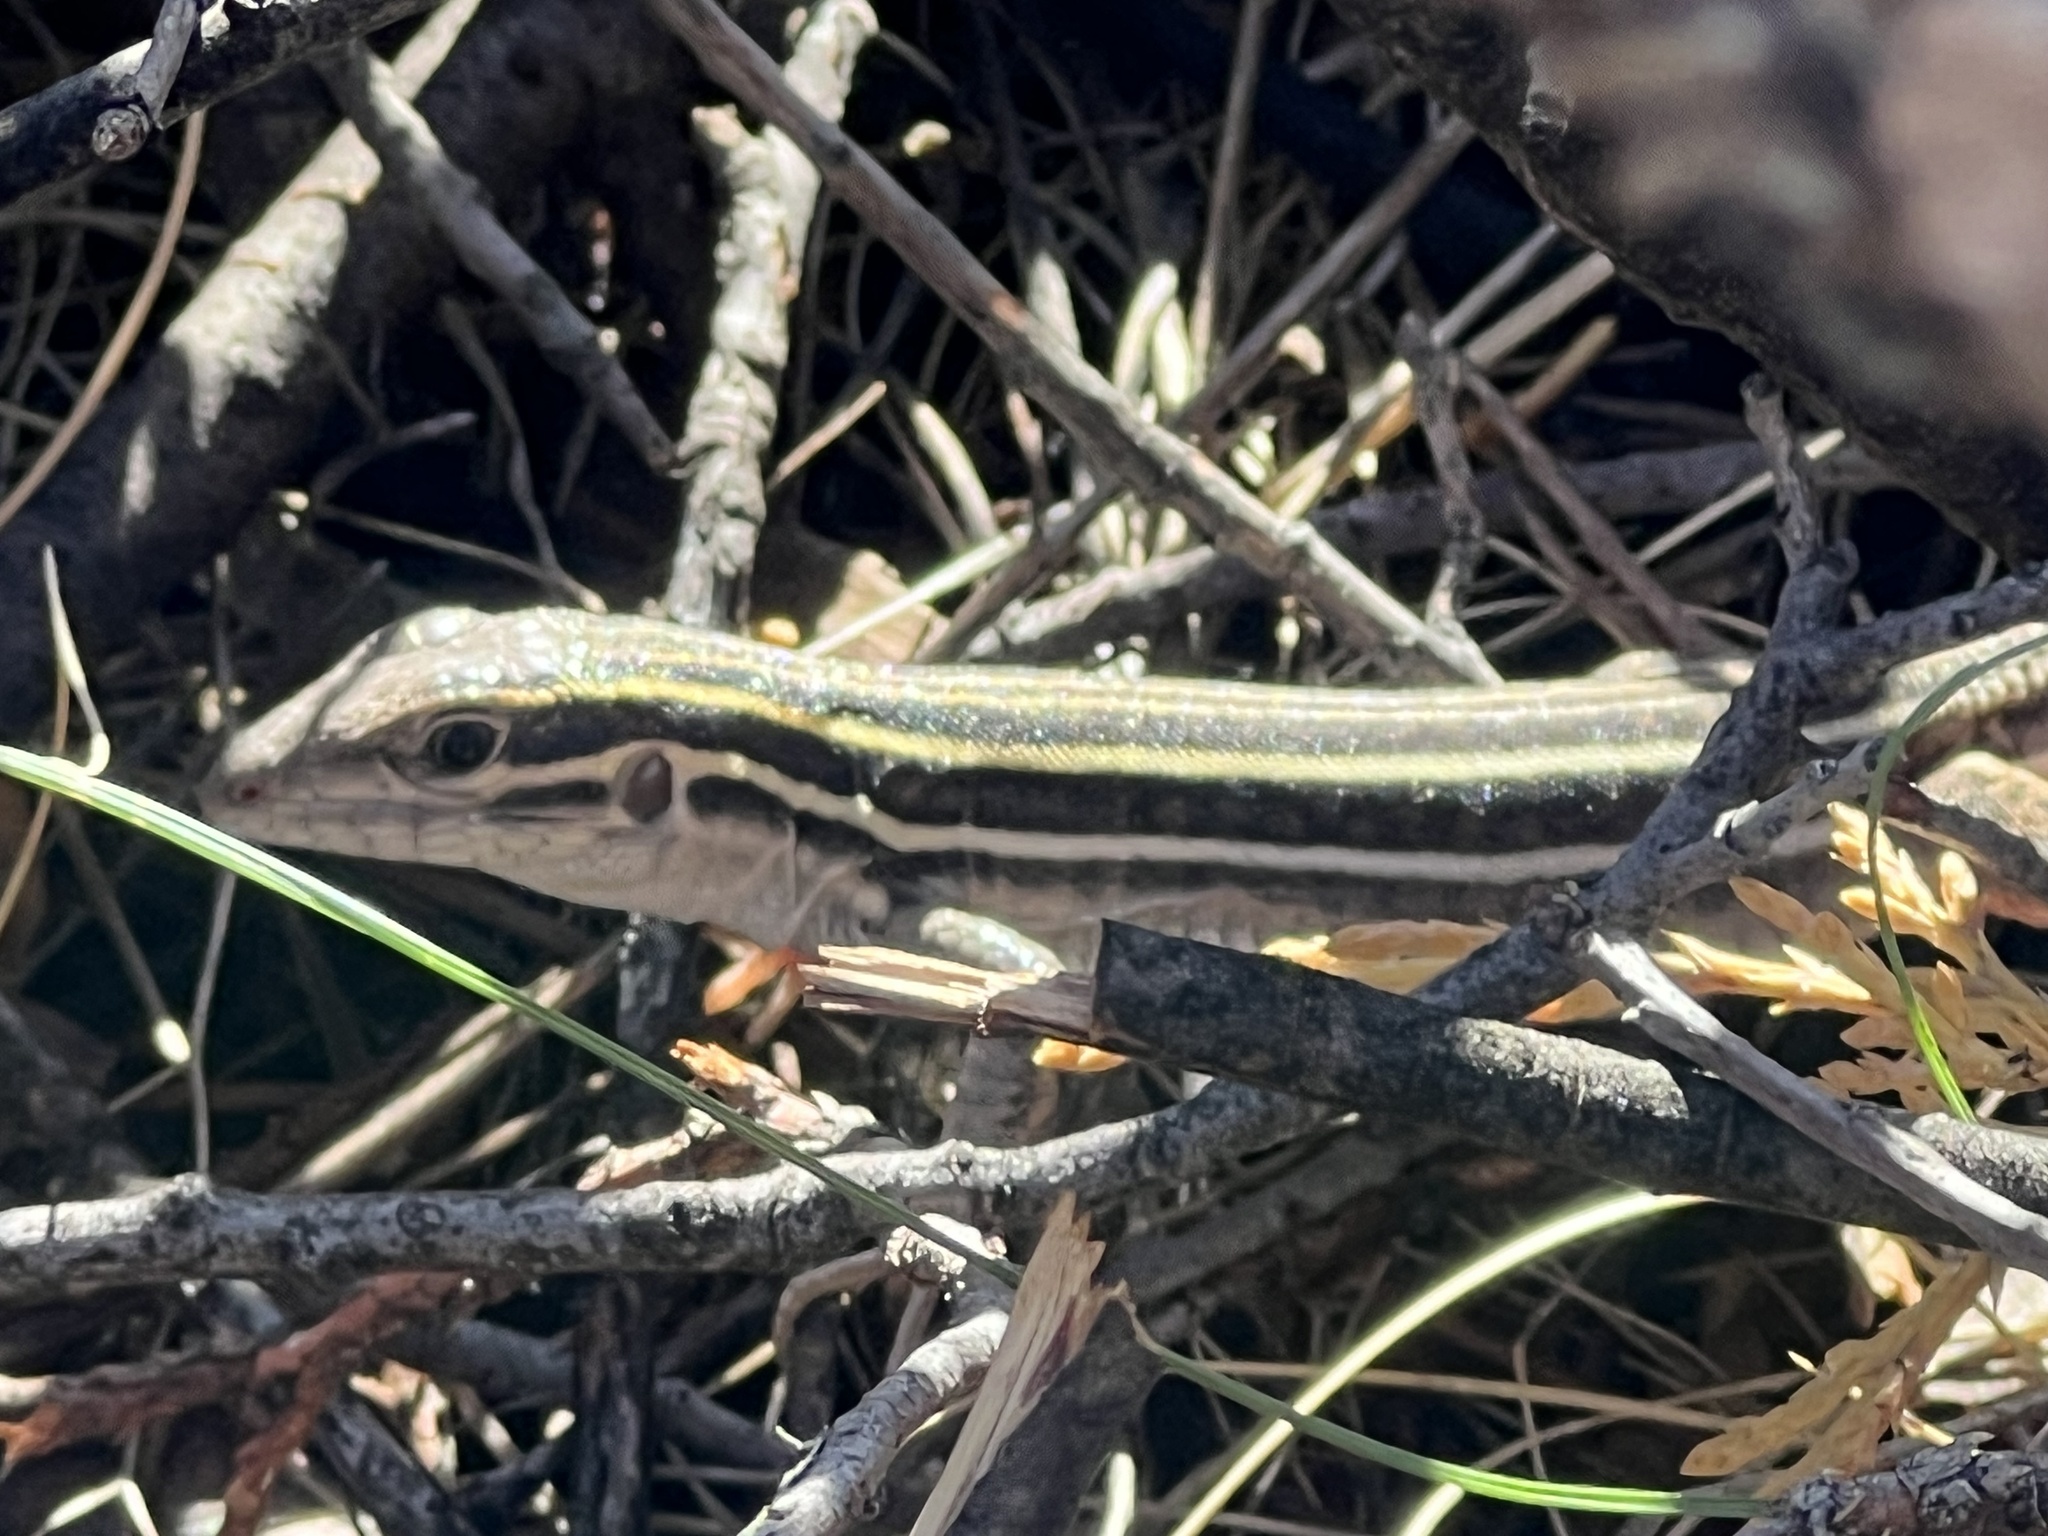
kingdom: Animalia
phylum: Chordata
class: Squamata
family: Teiidae
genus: Aspidoscelis
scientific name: Aspidoscelis sonorae
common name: Sonoran spotted whiptail
